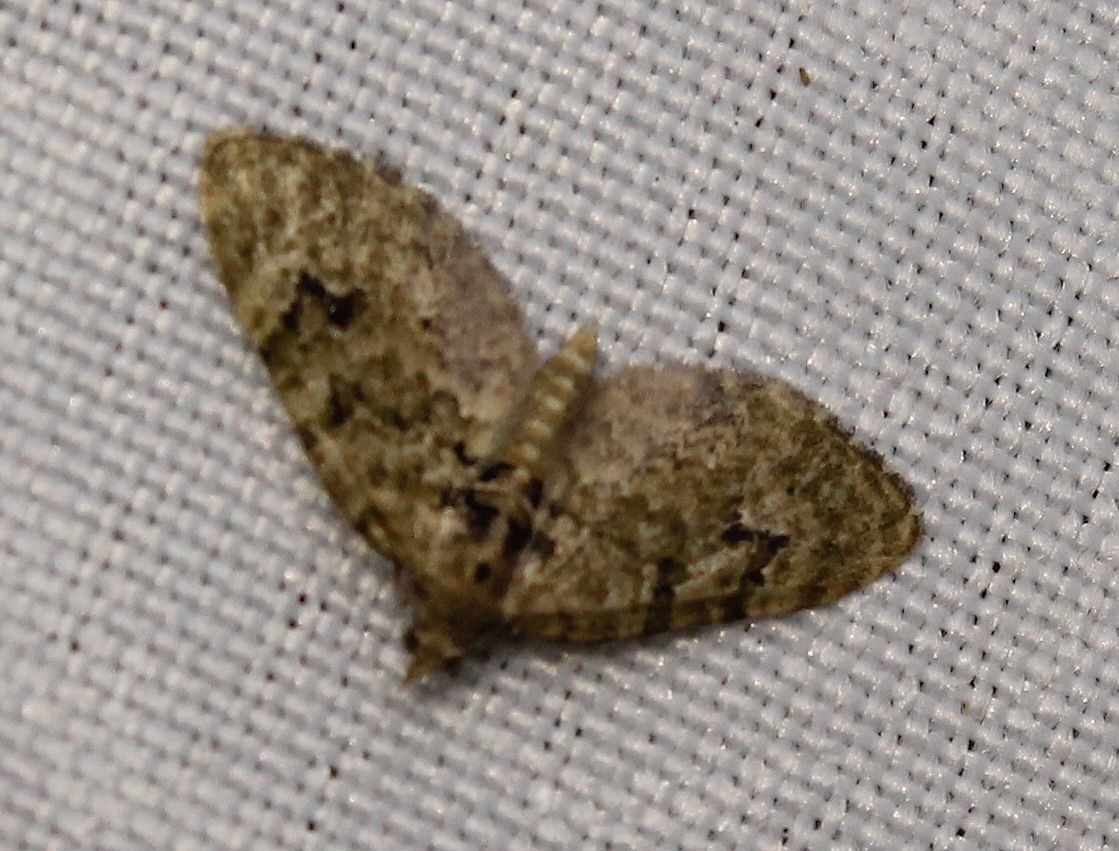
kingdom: Animalia
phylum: Arthropoda
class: Insecta
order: Lepidoptera
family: Geometridae
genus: Chloroclystis
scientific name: Chloroclystis v-ata
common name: V-pug
